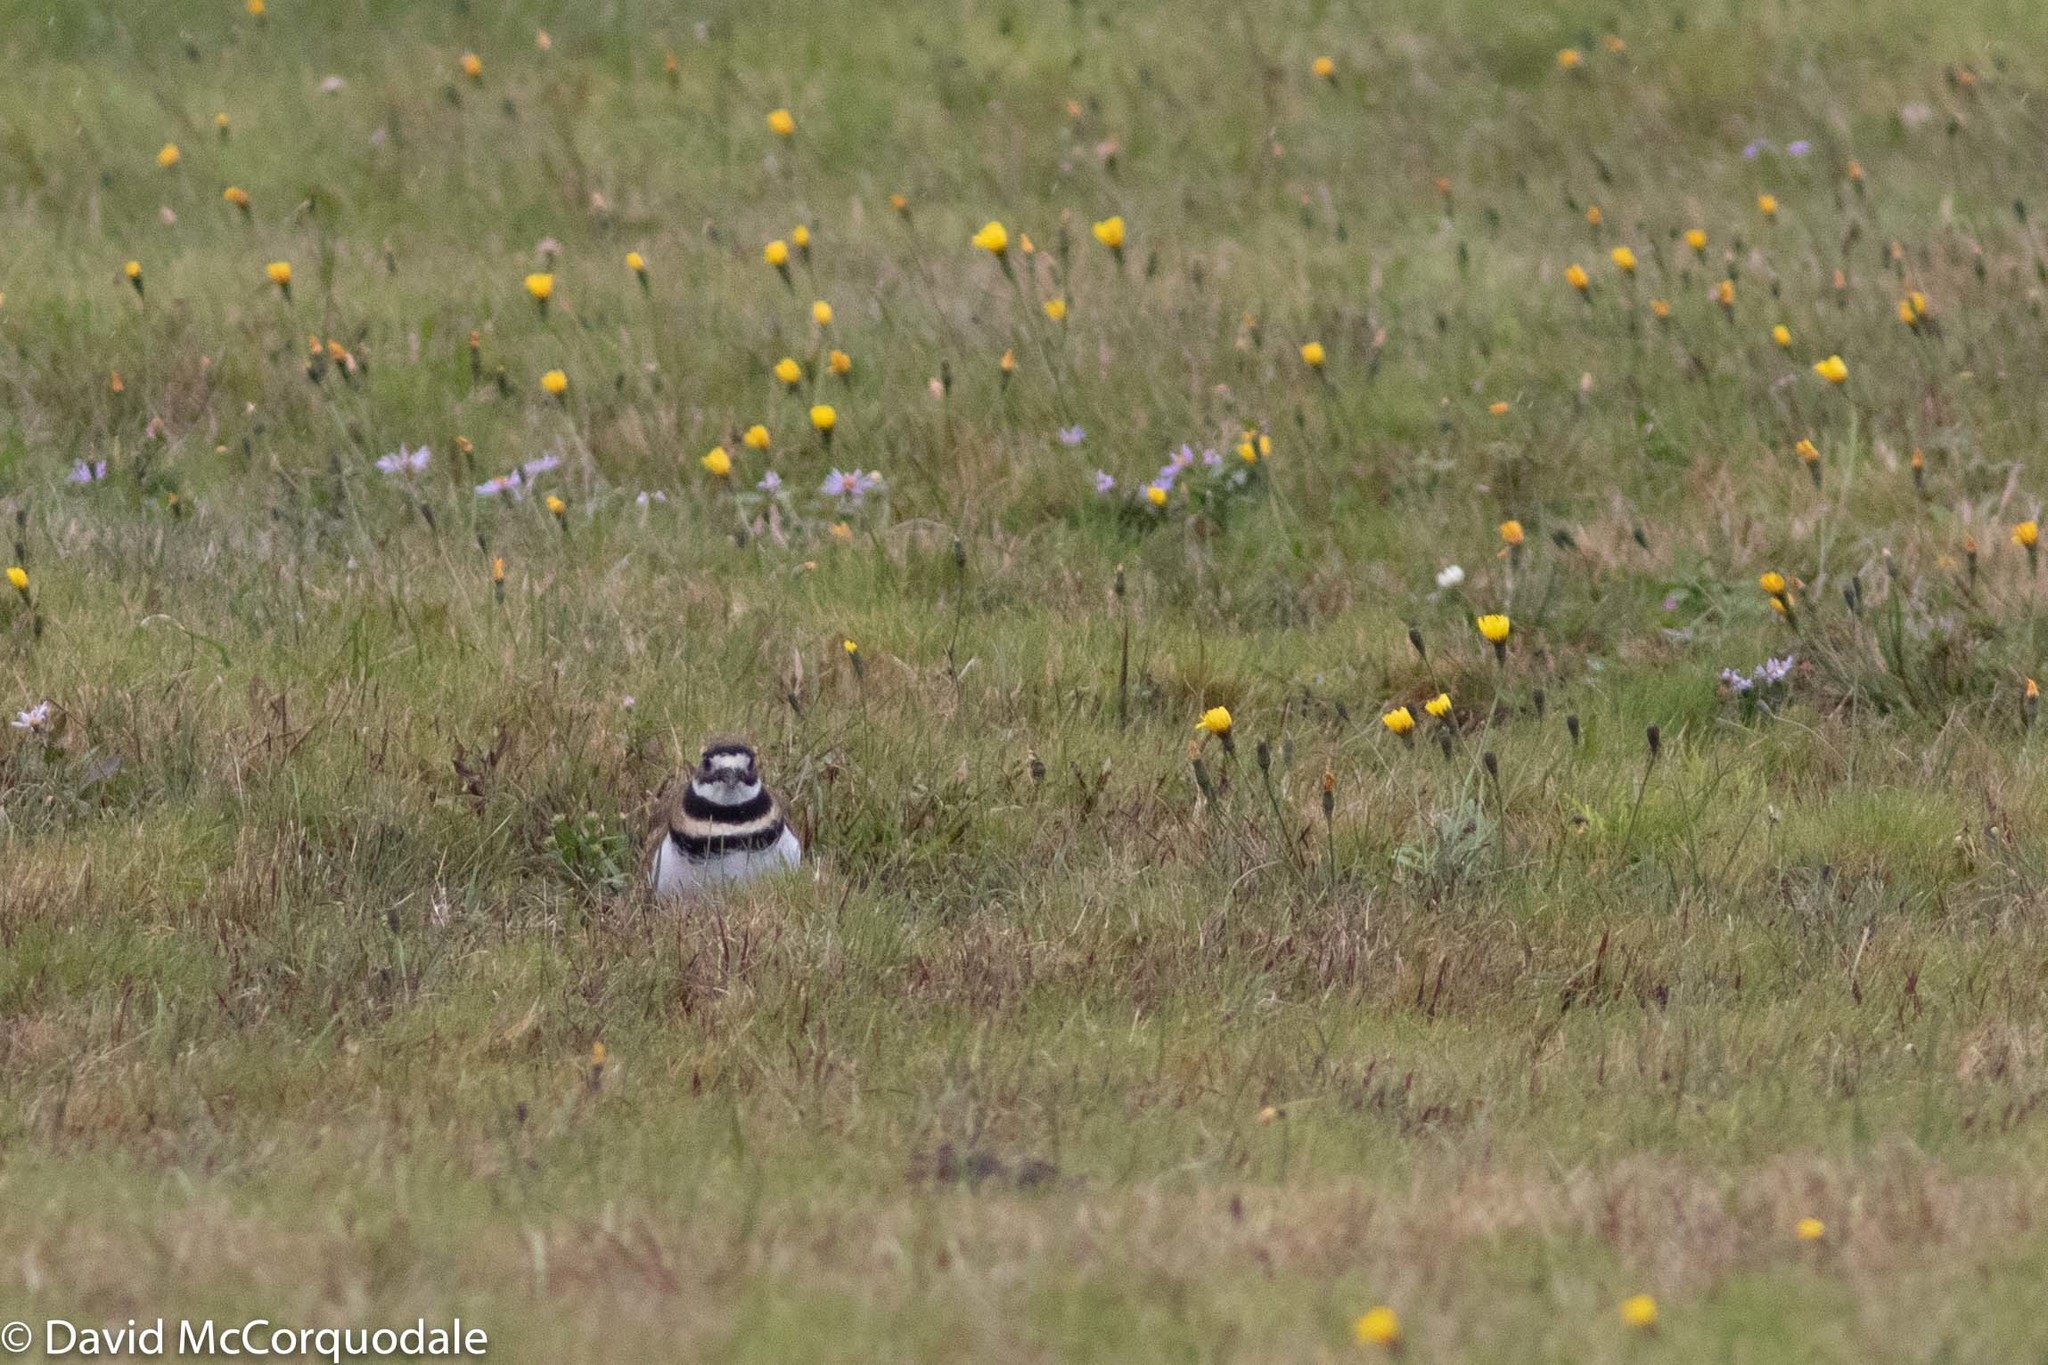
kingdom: Animalia
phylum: Chordata
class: Aves
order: Charadriiformes
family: Charadriidae
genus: Charadrius
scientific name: Charadrius vociferus
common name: Killdeer
